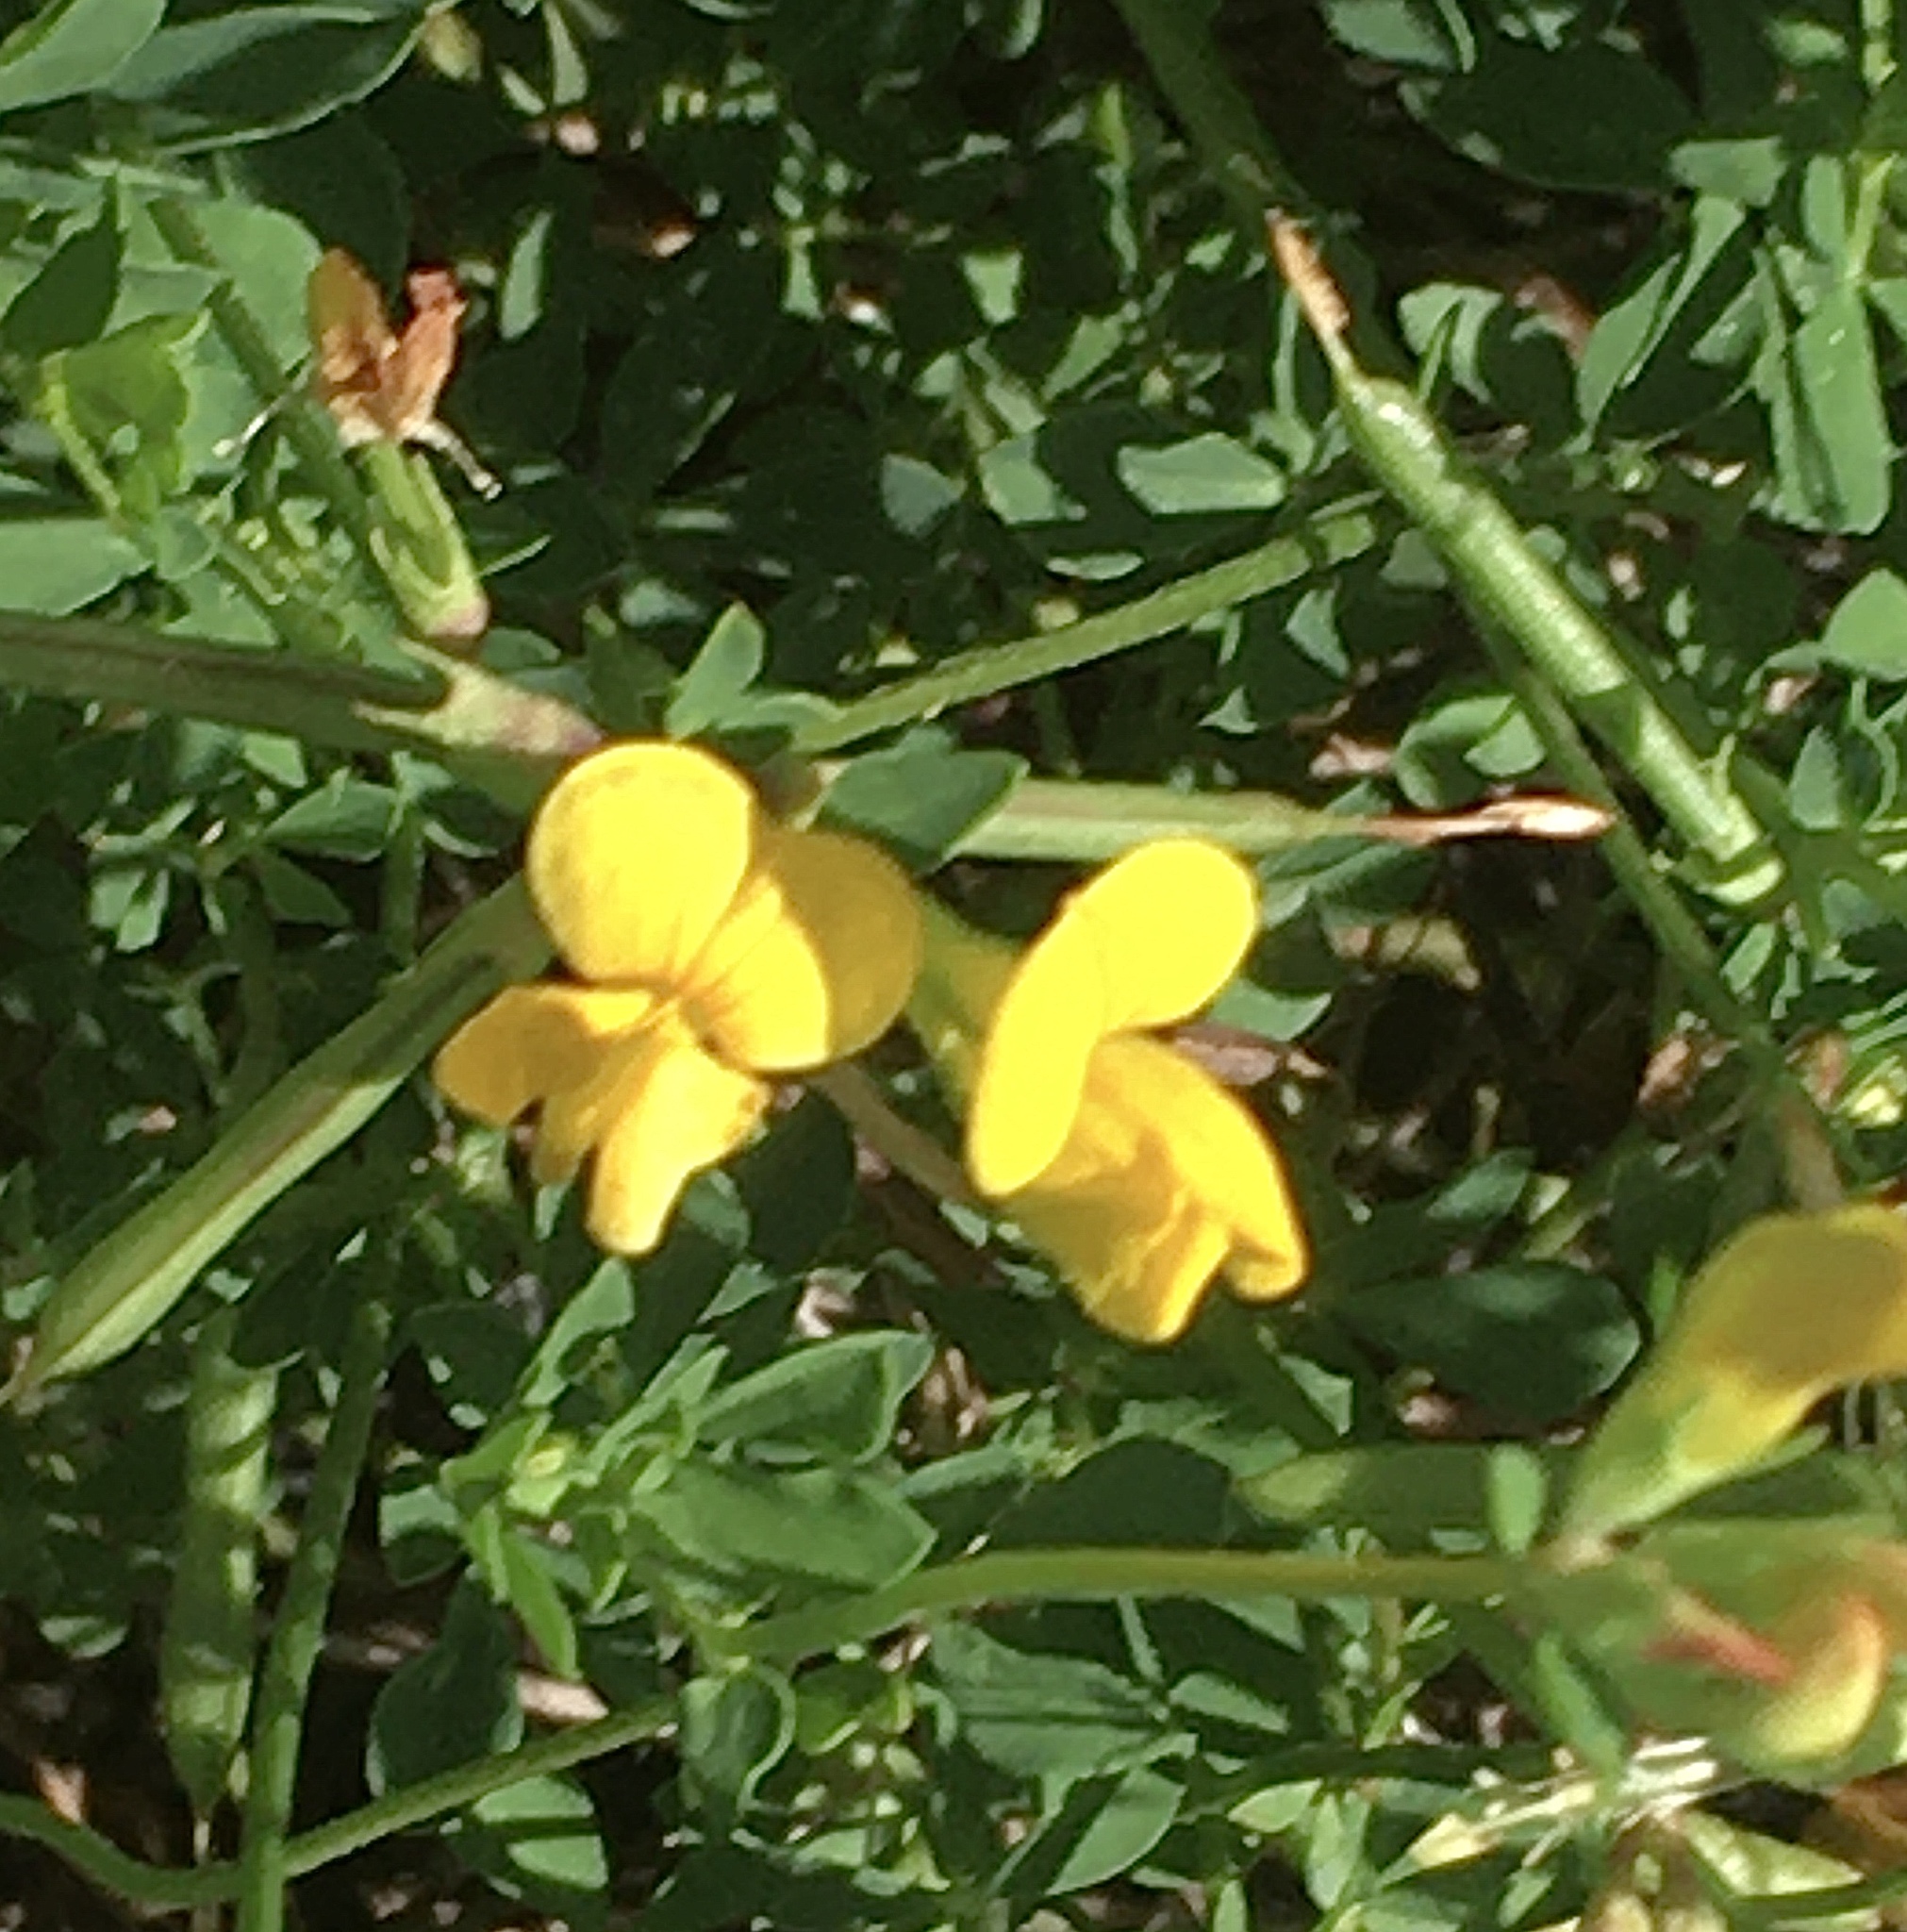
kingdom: Plantae
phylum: Tracheophyta
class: Magnoliopsida
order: Fabales
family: Fabaceae
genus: Lotus
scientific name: Lotus corniculatus
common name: Common bird's-foot-trefoil
